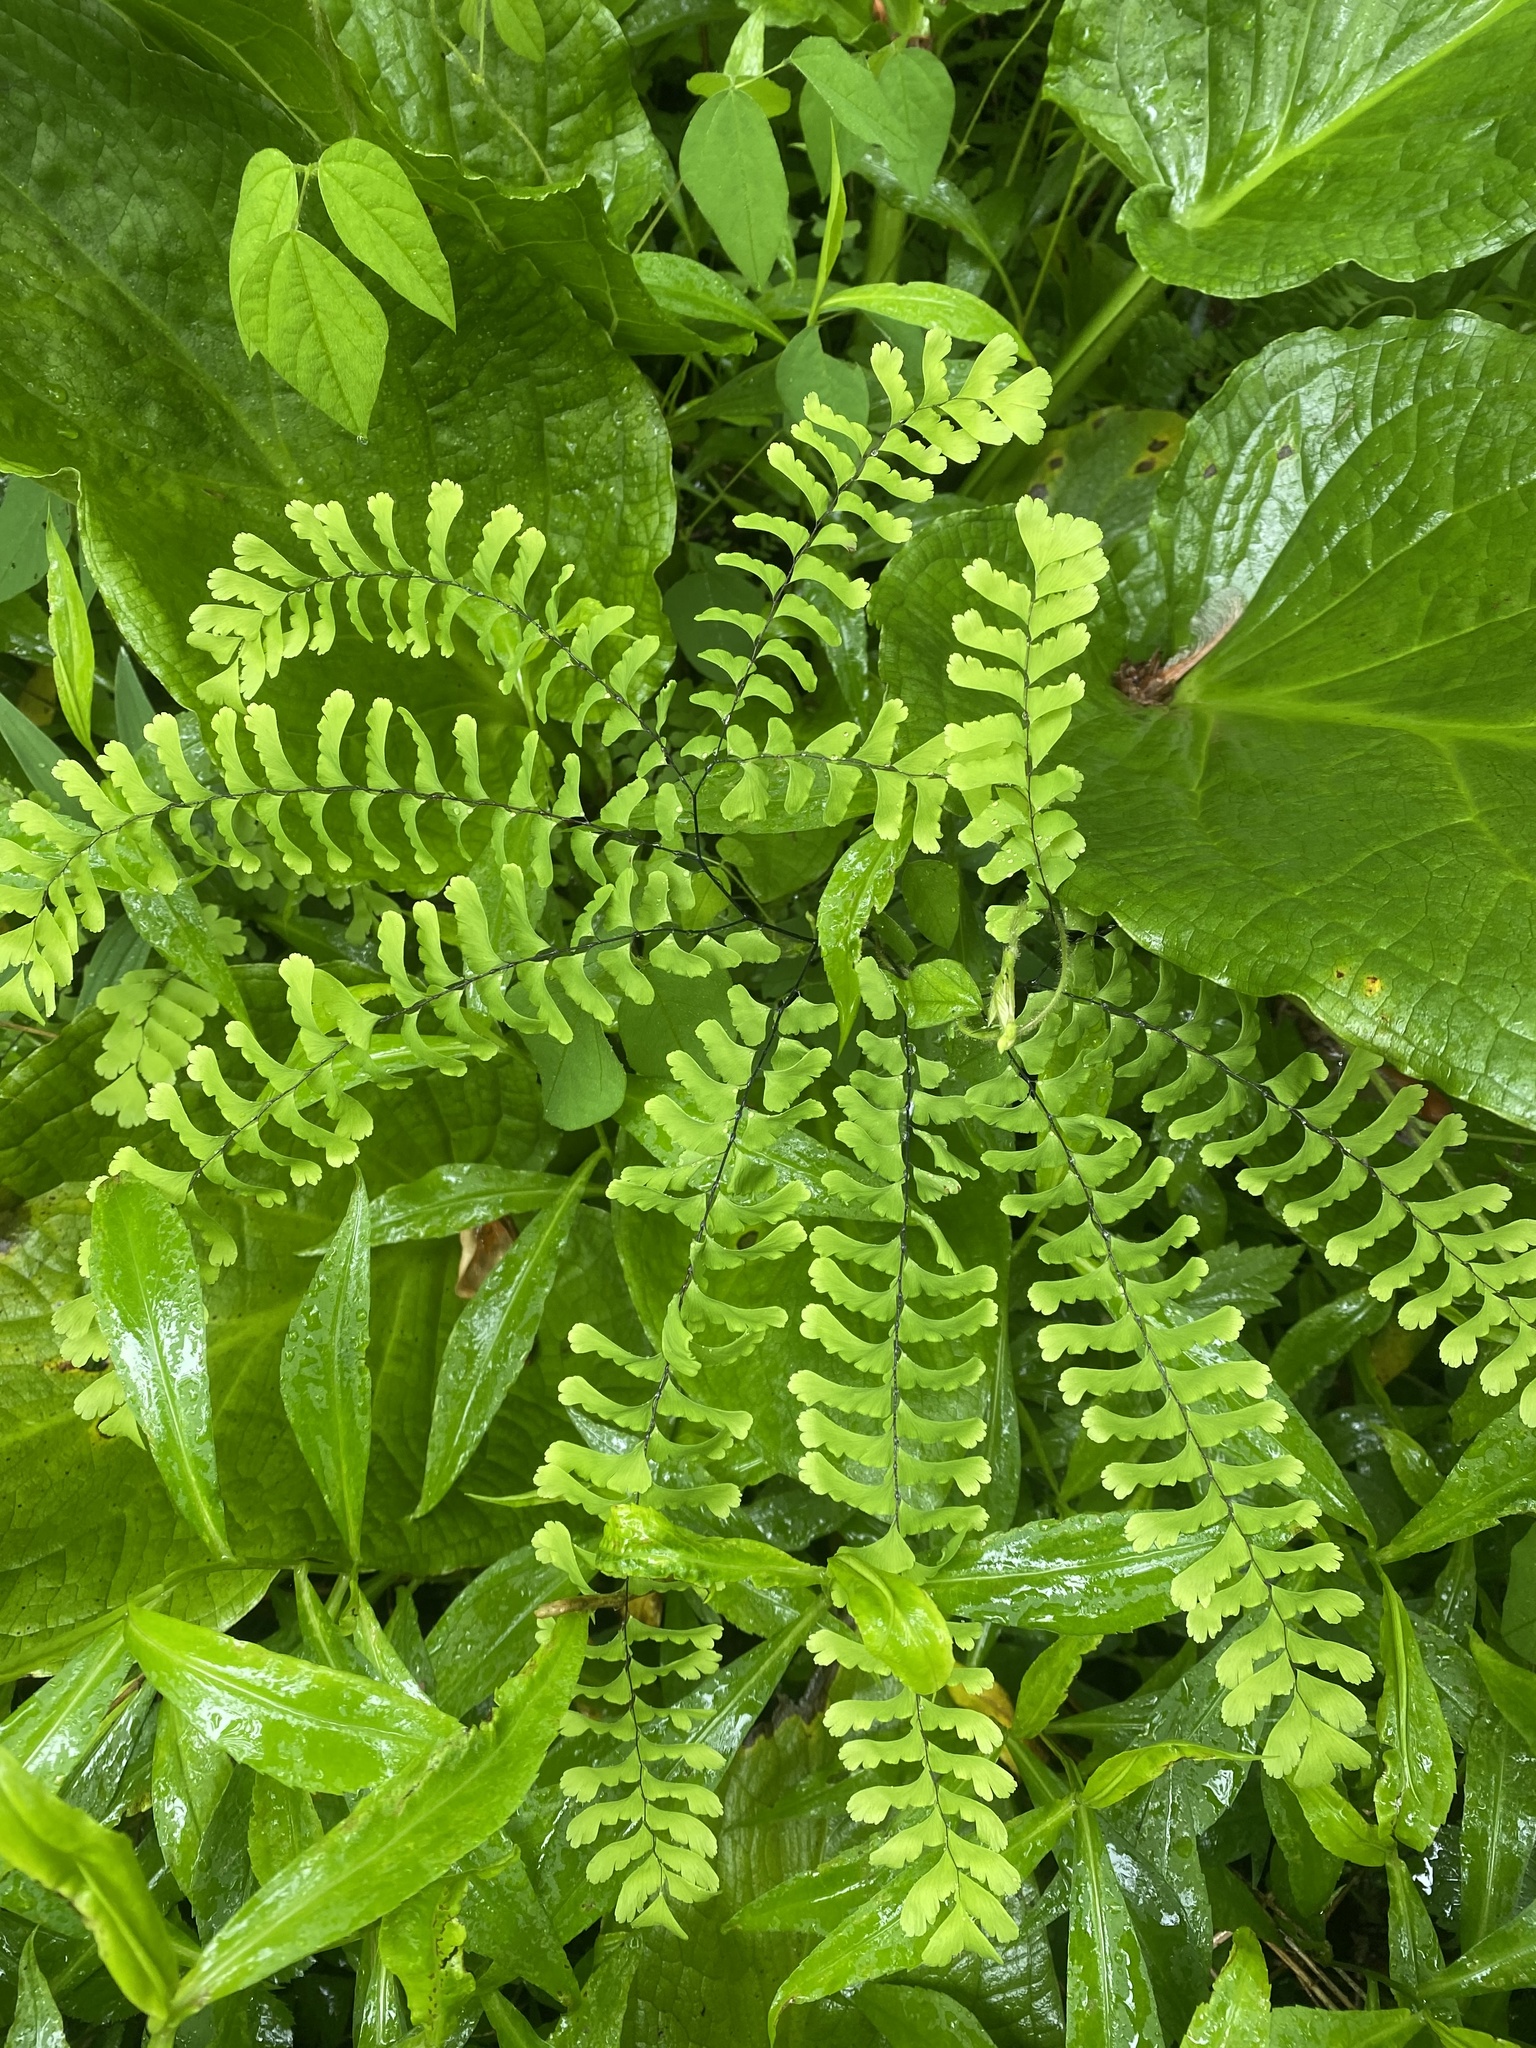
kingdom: Plantae
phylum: Tracheophyta
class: Polypodiopsida
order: Polypodiales
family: Pteridaceae
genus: Adiantum
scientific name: Adiantum pedatum
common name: Five-finger fern
